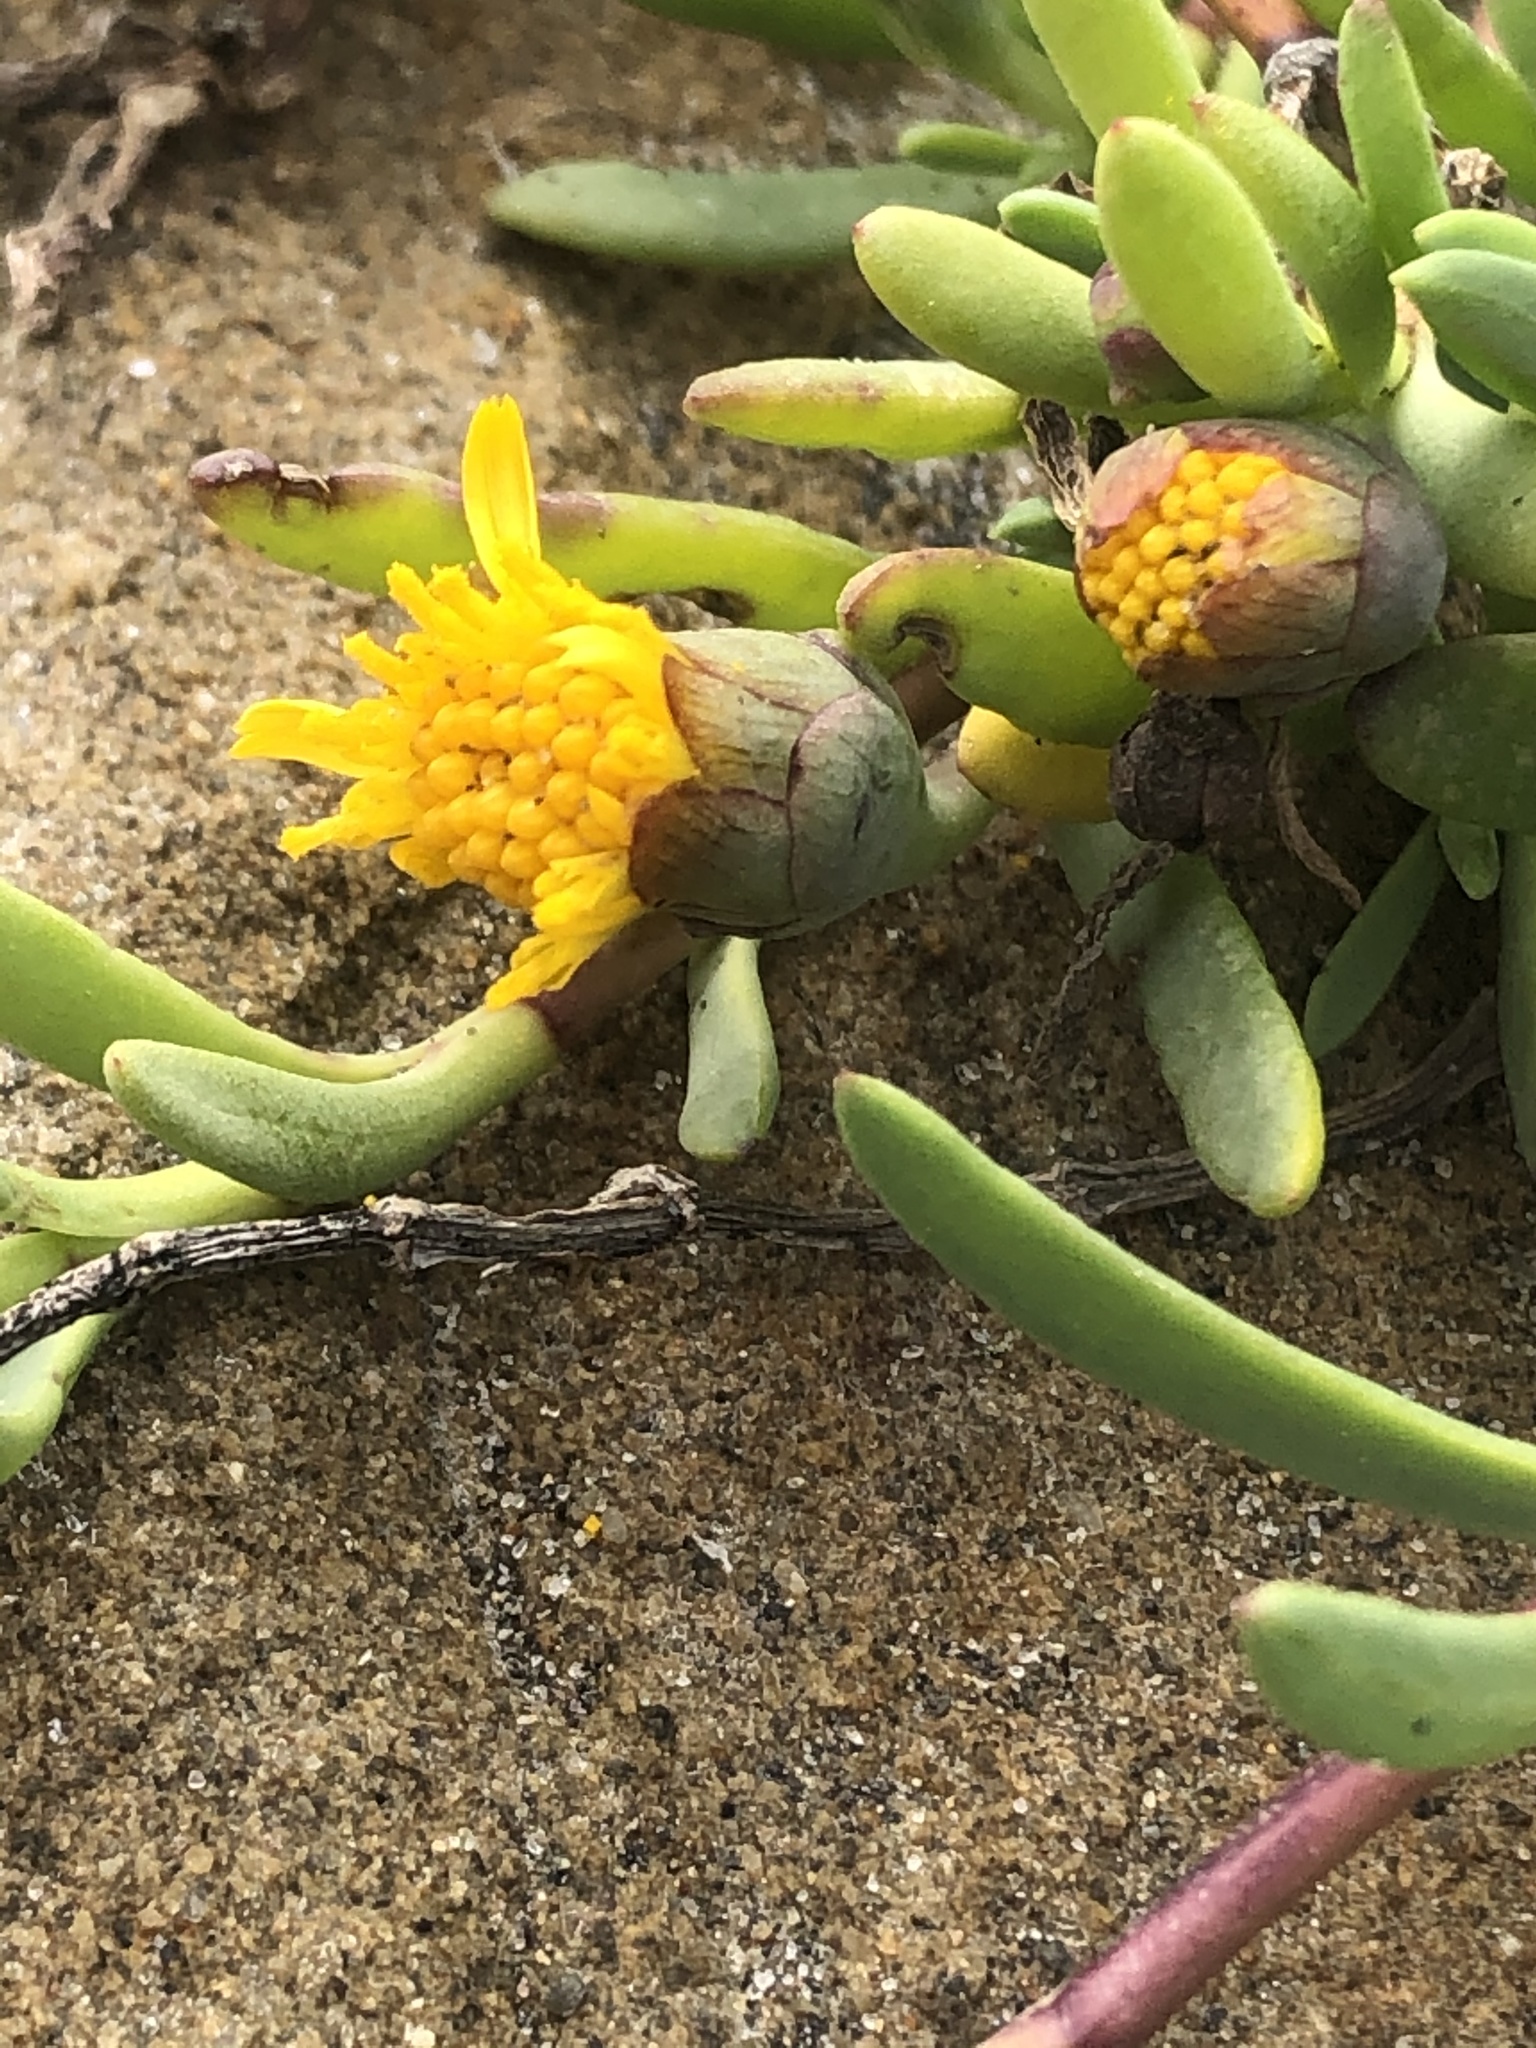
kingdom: Plantae
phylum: Tracheophyta
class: Magnoliopsida
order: Asterales
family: Asteraceae
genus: Jaumea
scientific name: Jaumea carnosa
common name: Fleshy jaumea
